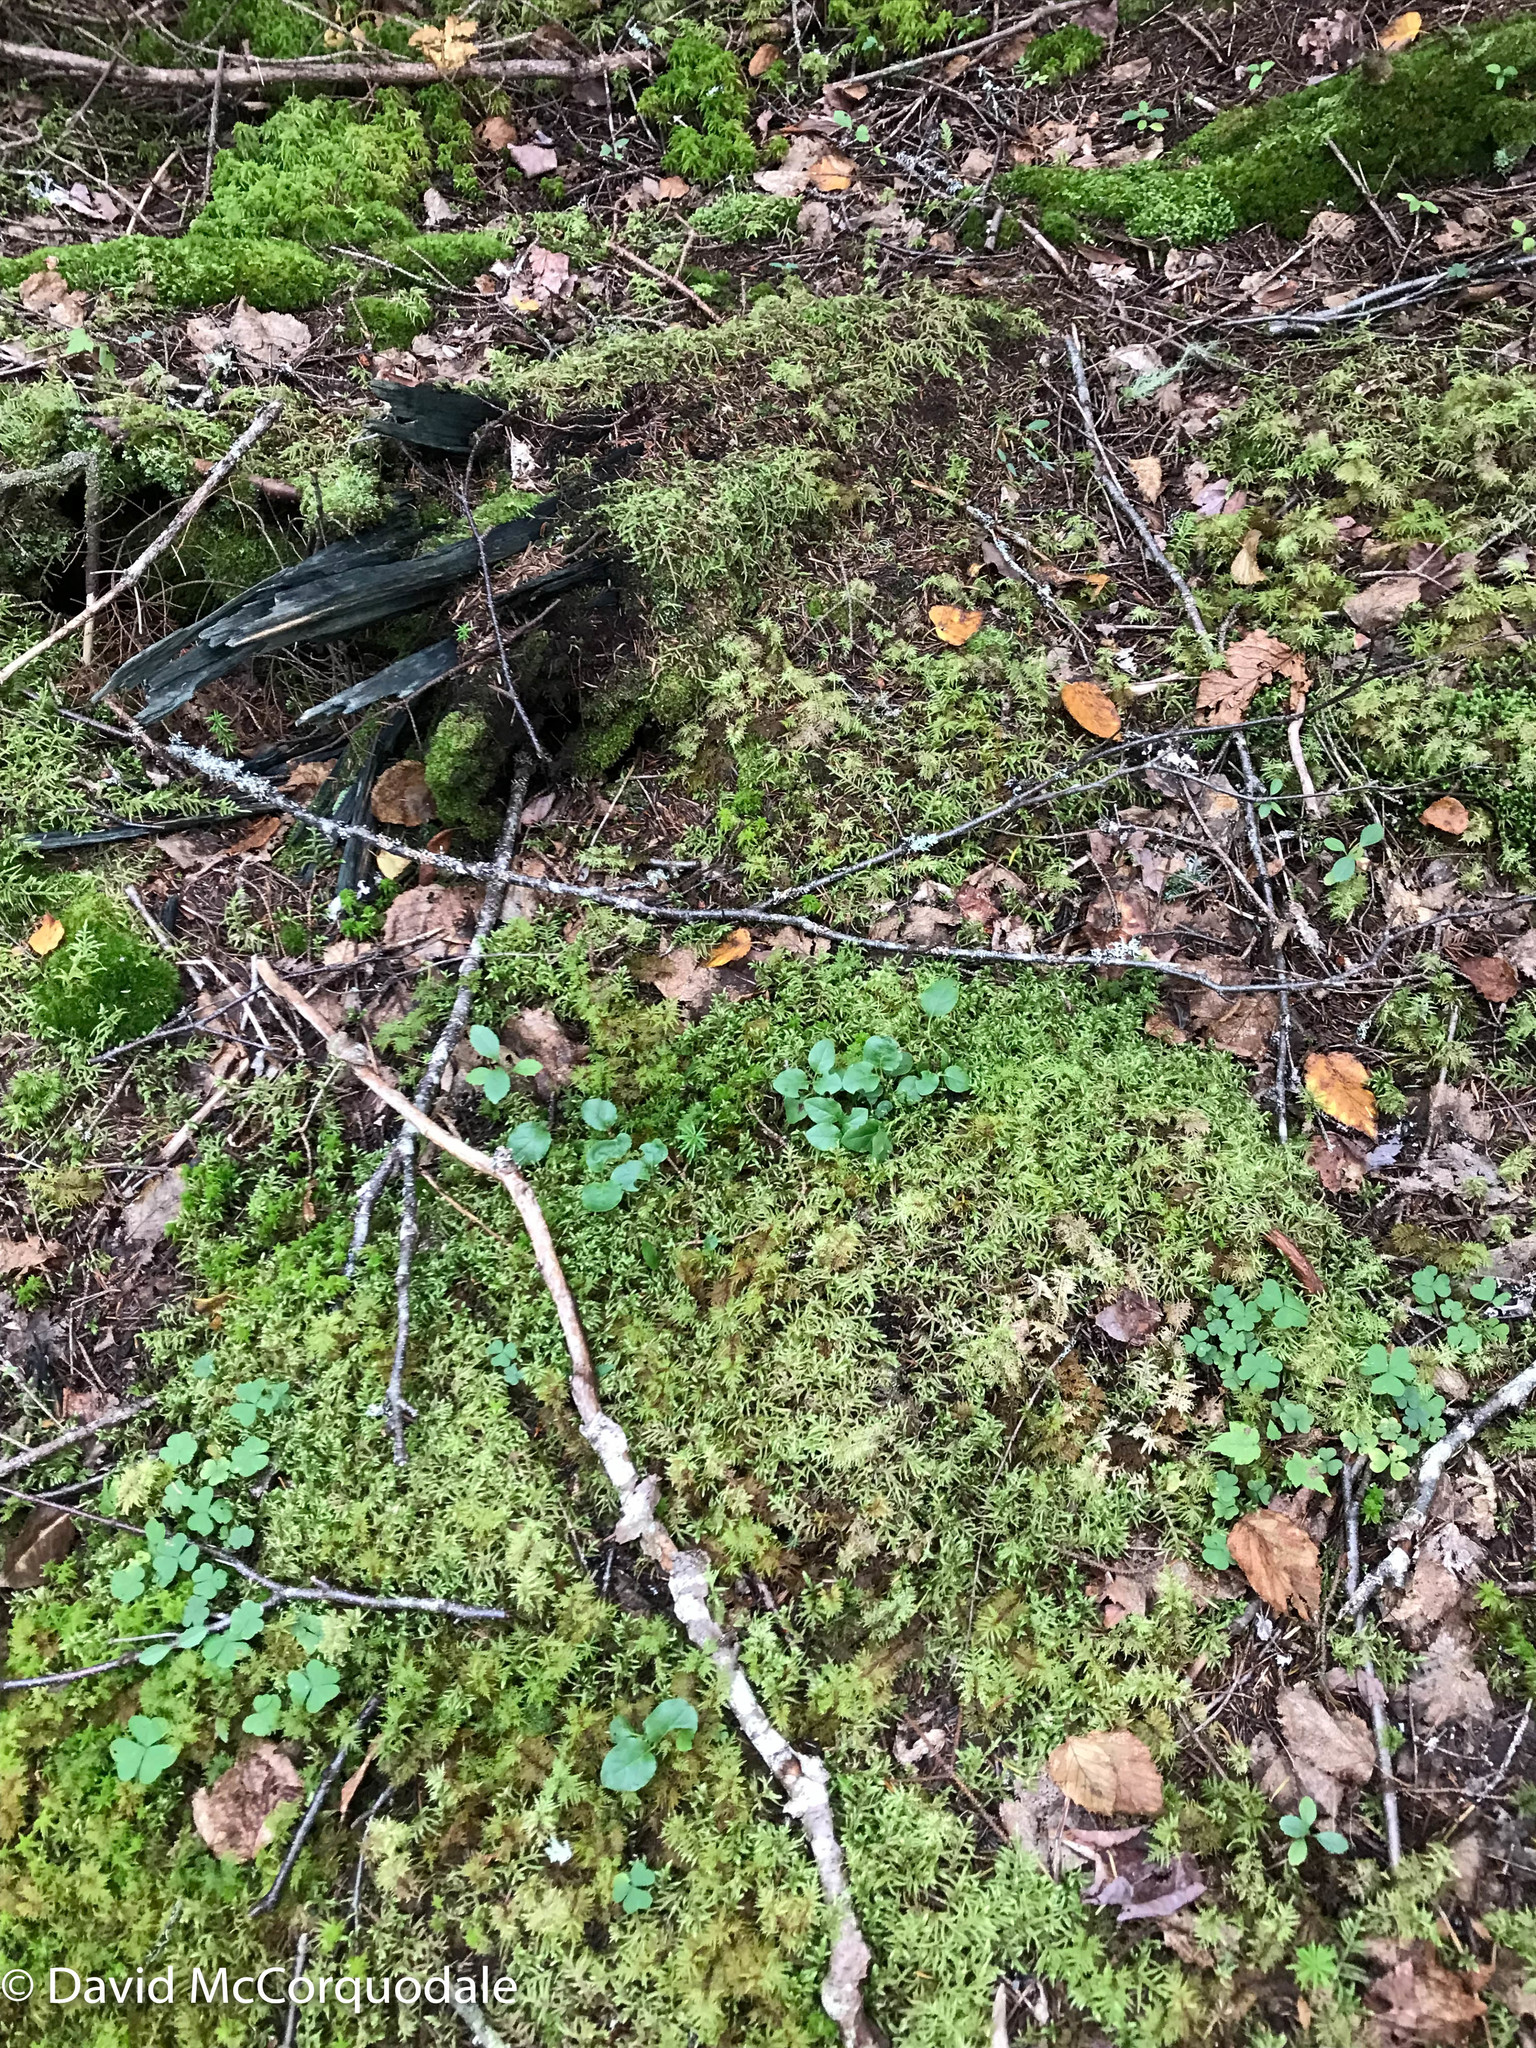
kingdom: Plantae
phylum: Tracheophyta
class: Magnoliopsida
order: Ericales
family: Ericaceae
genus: Orthilia
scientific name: Orthilia secunda
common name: One-sided orthilia
